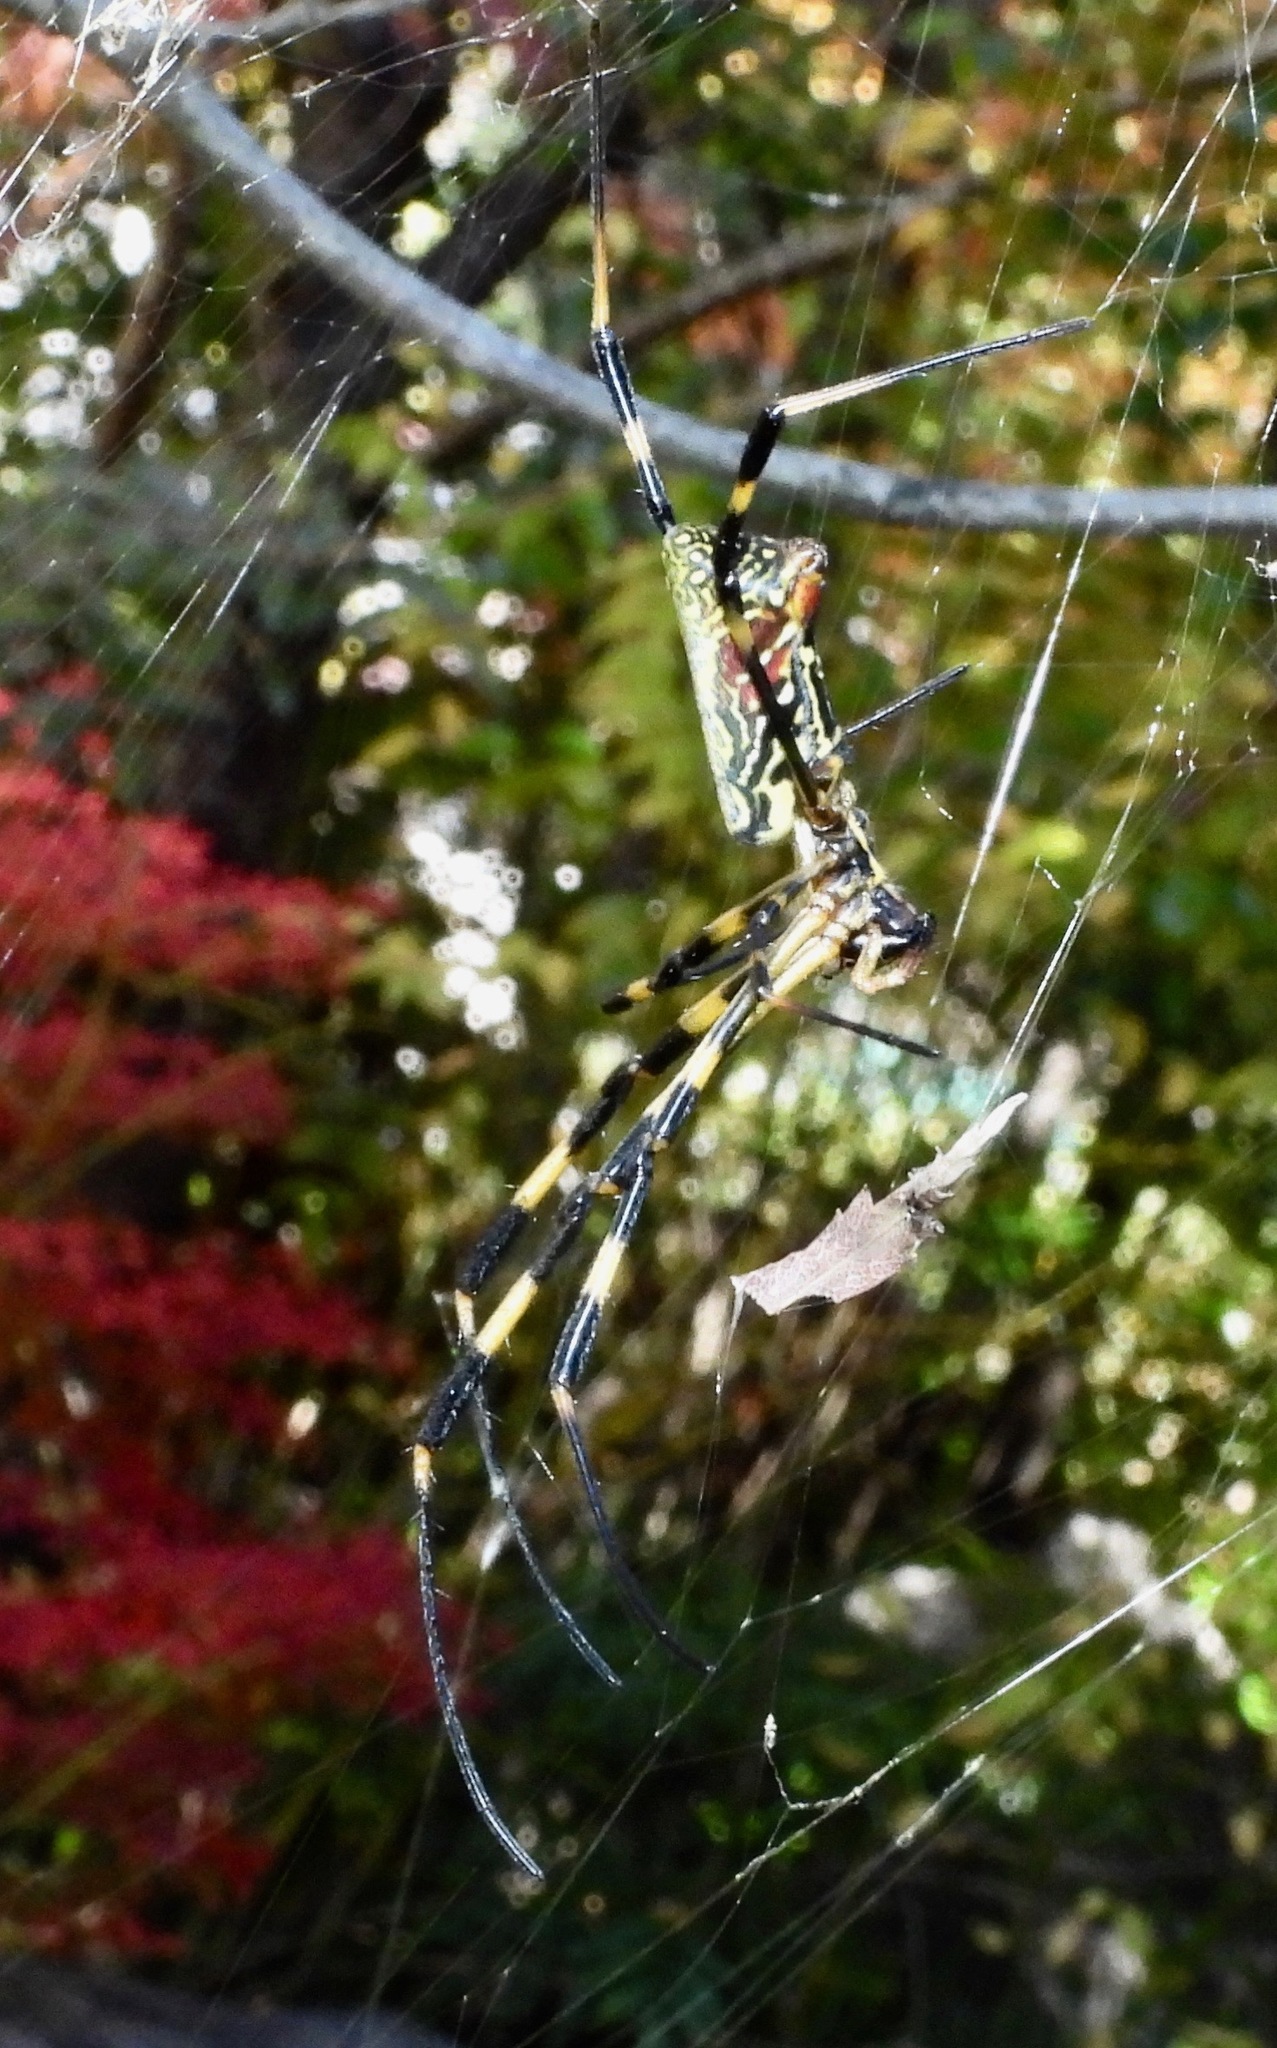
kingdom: Animalia
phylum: Arthropoda
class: Arachnida
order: Araneae
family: Araneidae
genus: Trichonephila
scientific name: Trichonephila clavata
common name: Jorō spider
